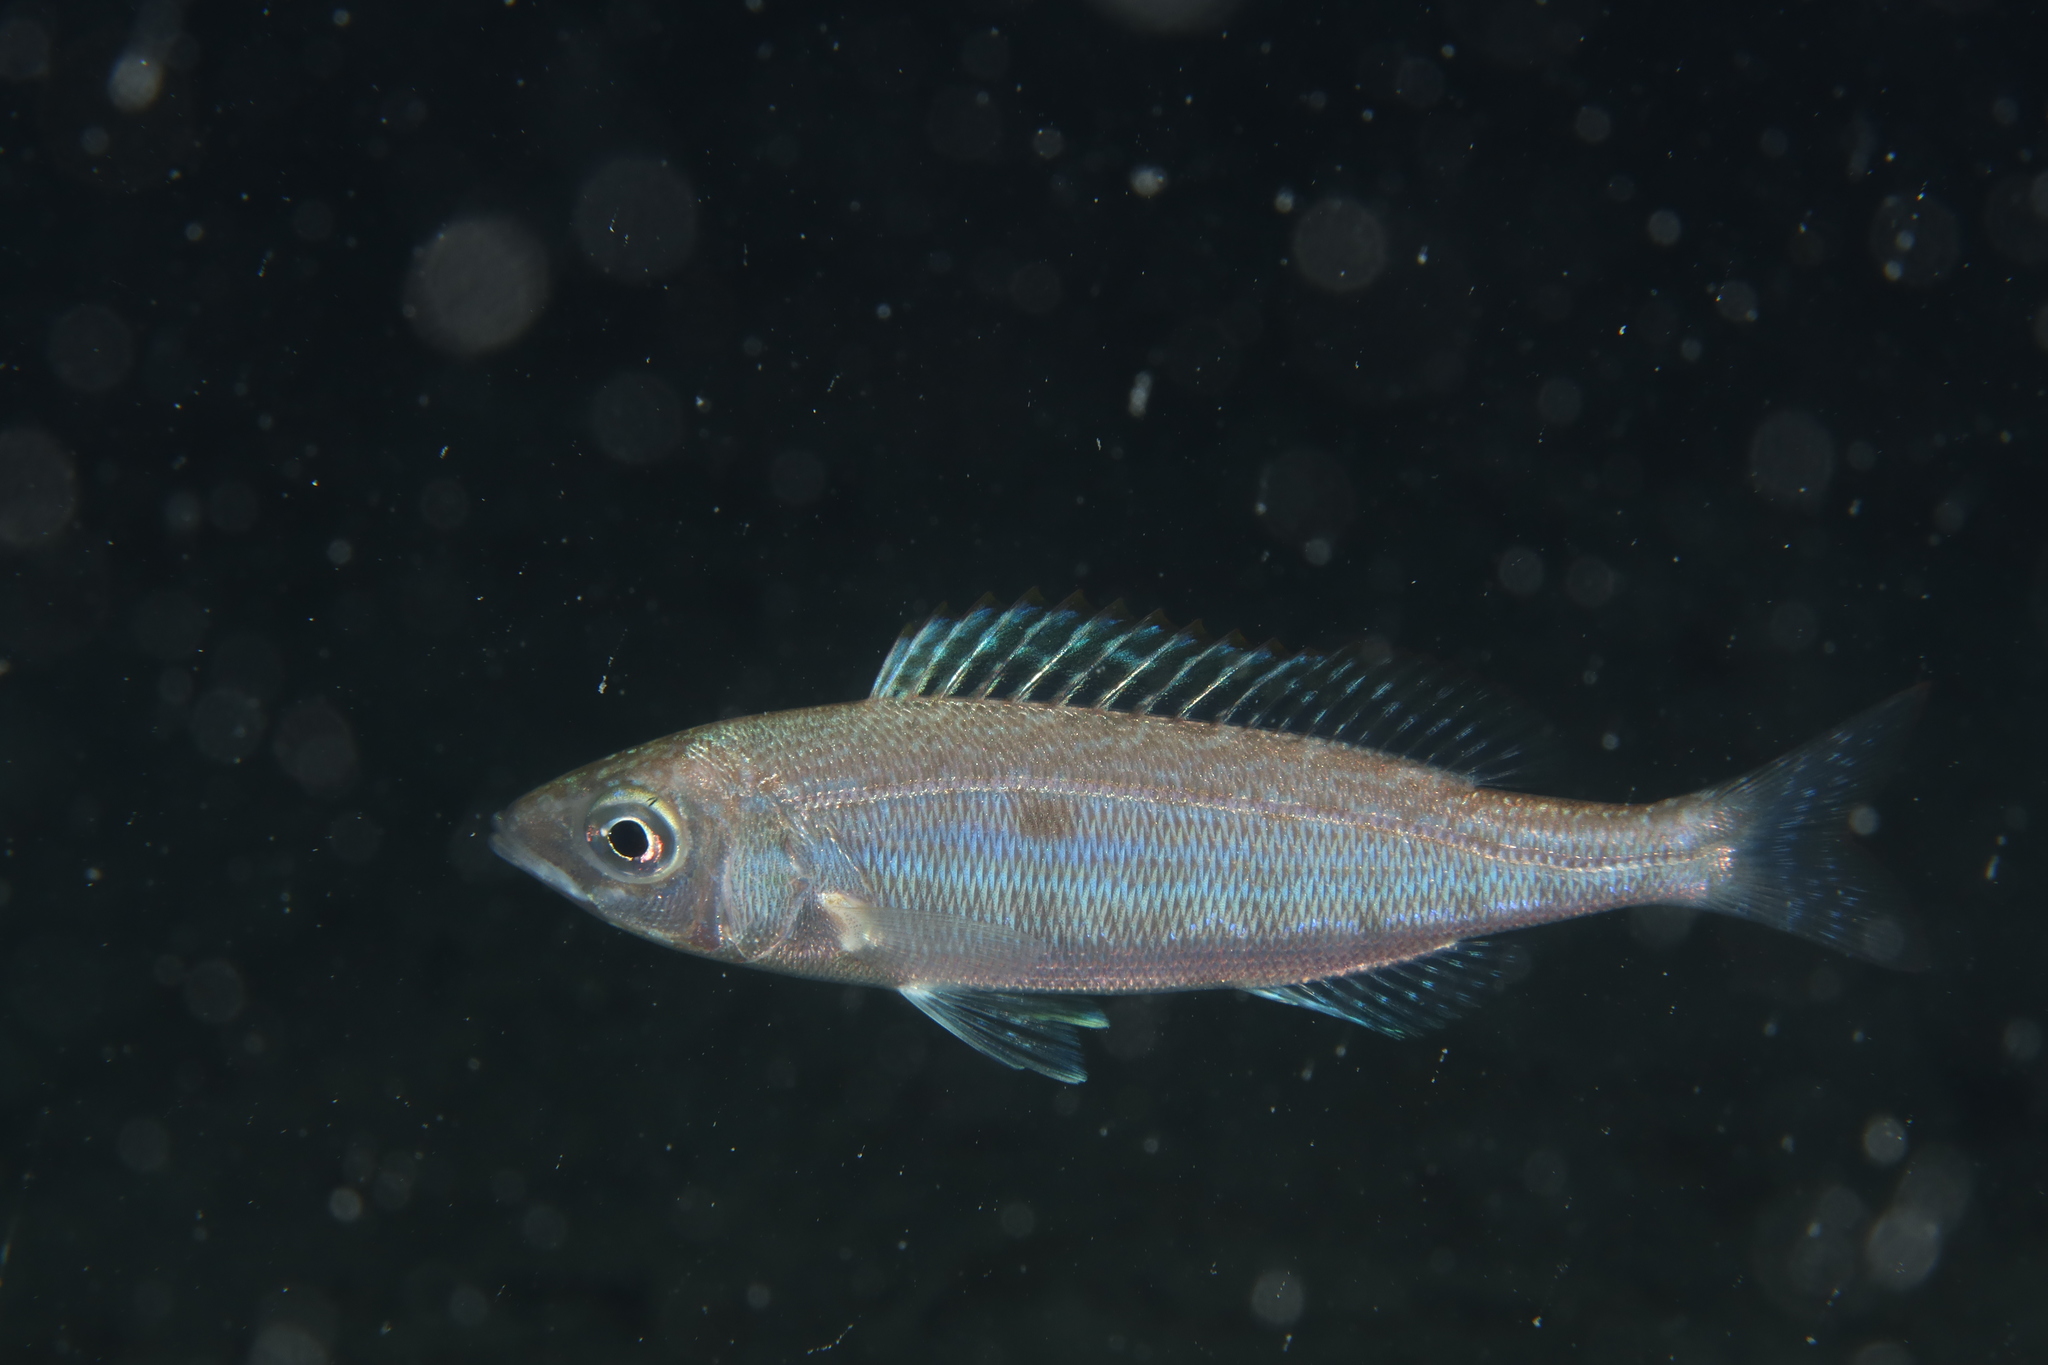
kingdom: Animalia
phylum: Chordata
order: Perciformes
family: Sparidae
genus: Spicara
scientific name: Spicara maena
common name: Blotched picarel
